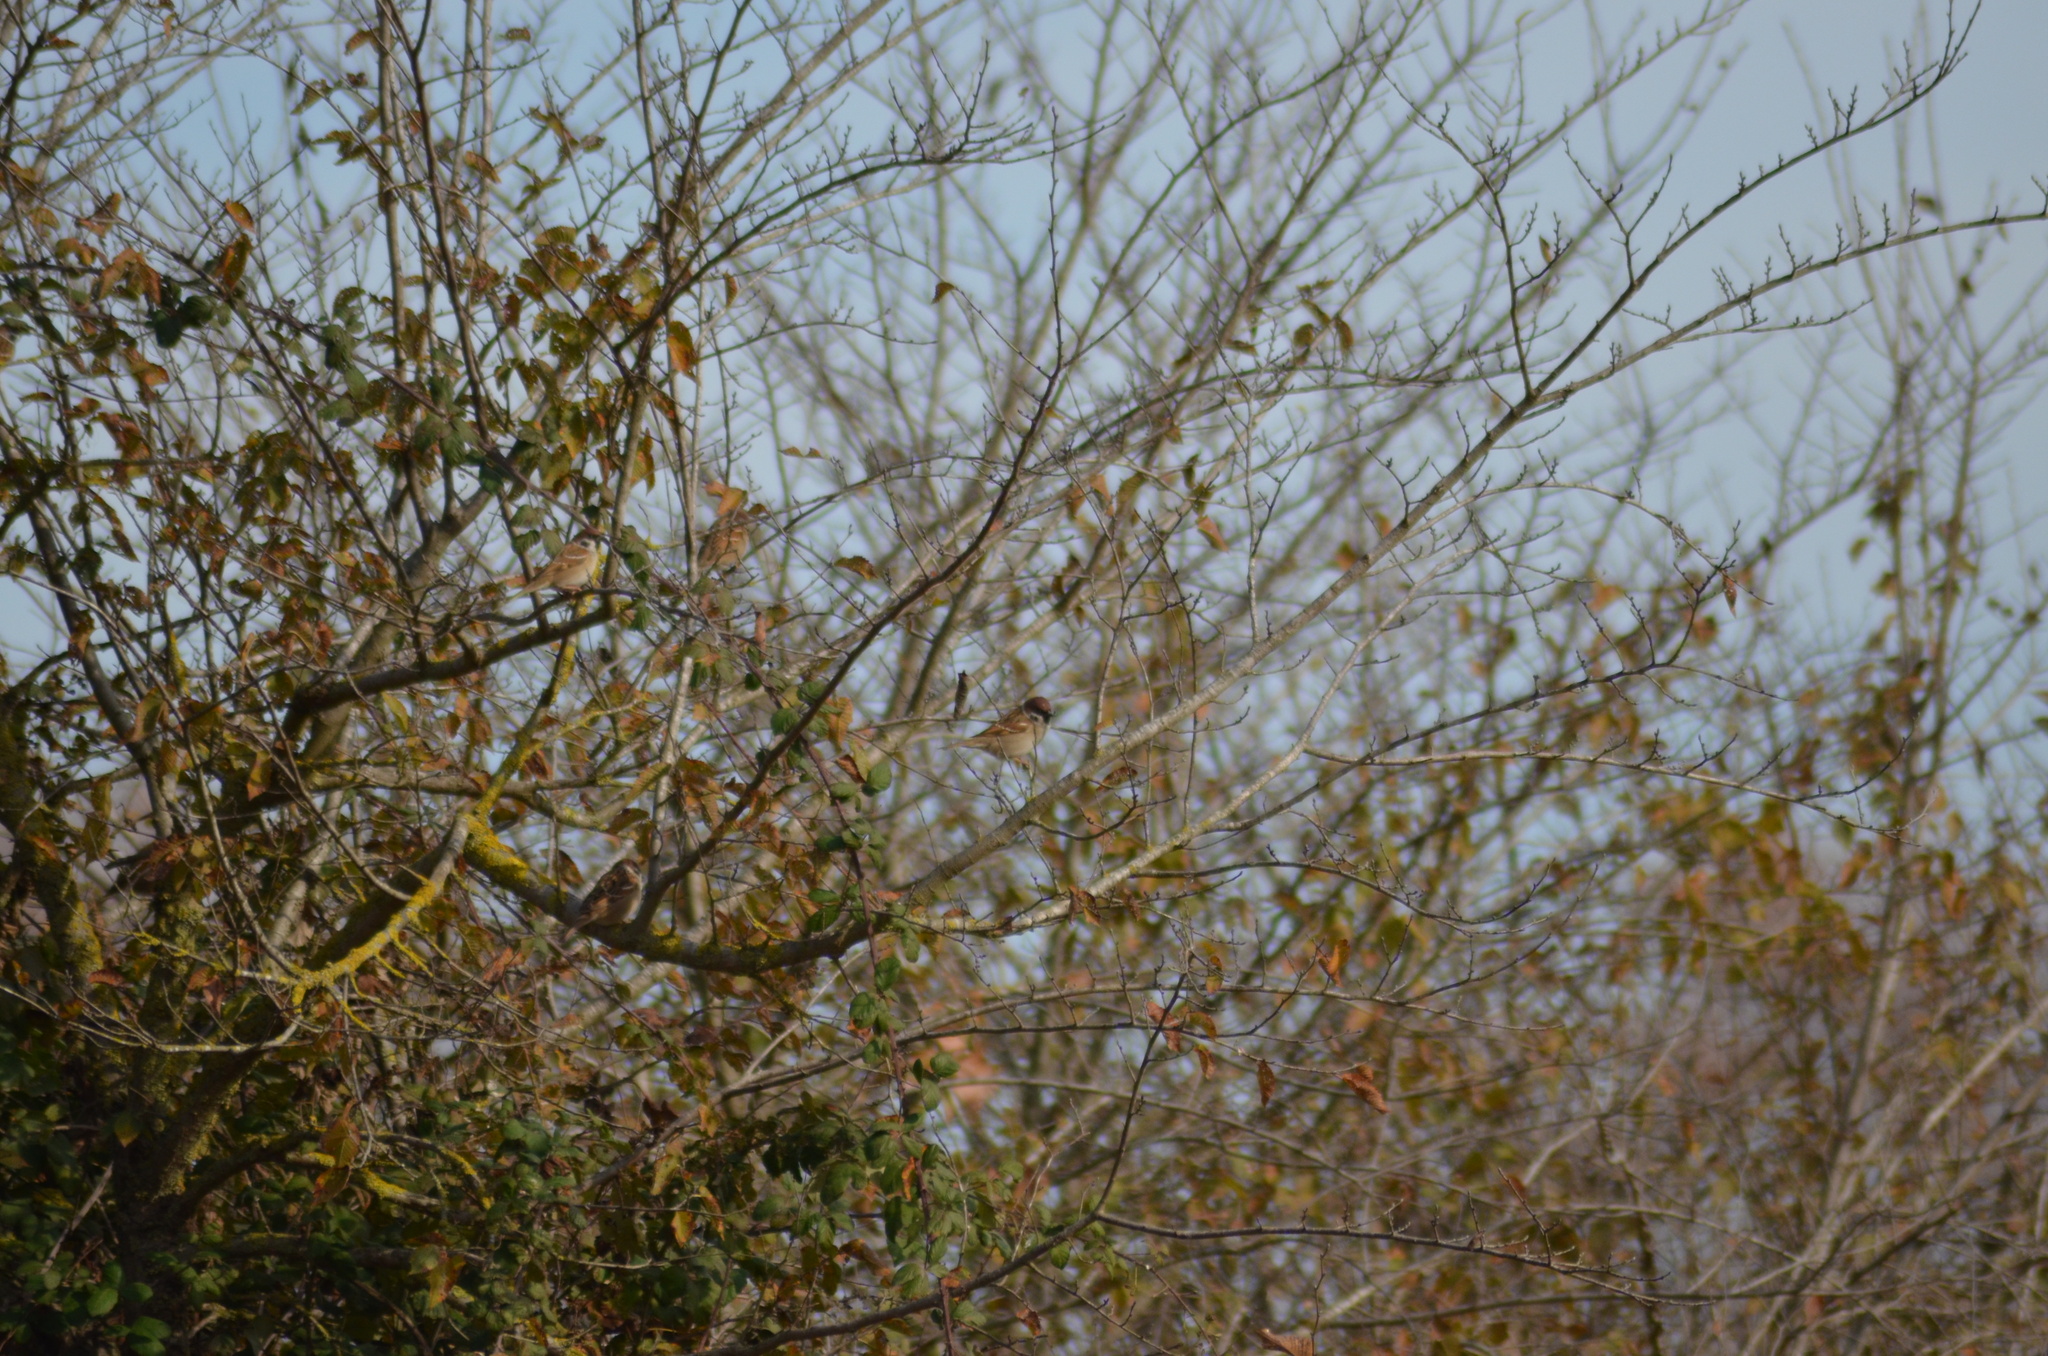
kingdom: Animalia
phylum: Chordata
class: Aves
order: Passeriformes
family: Passeridae
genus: Passer
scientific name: Passer montanus
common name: Eurasian tree sparrow
